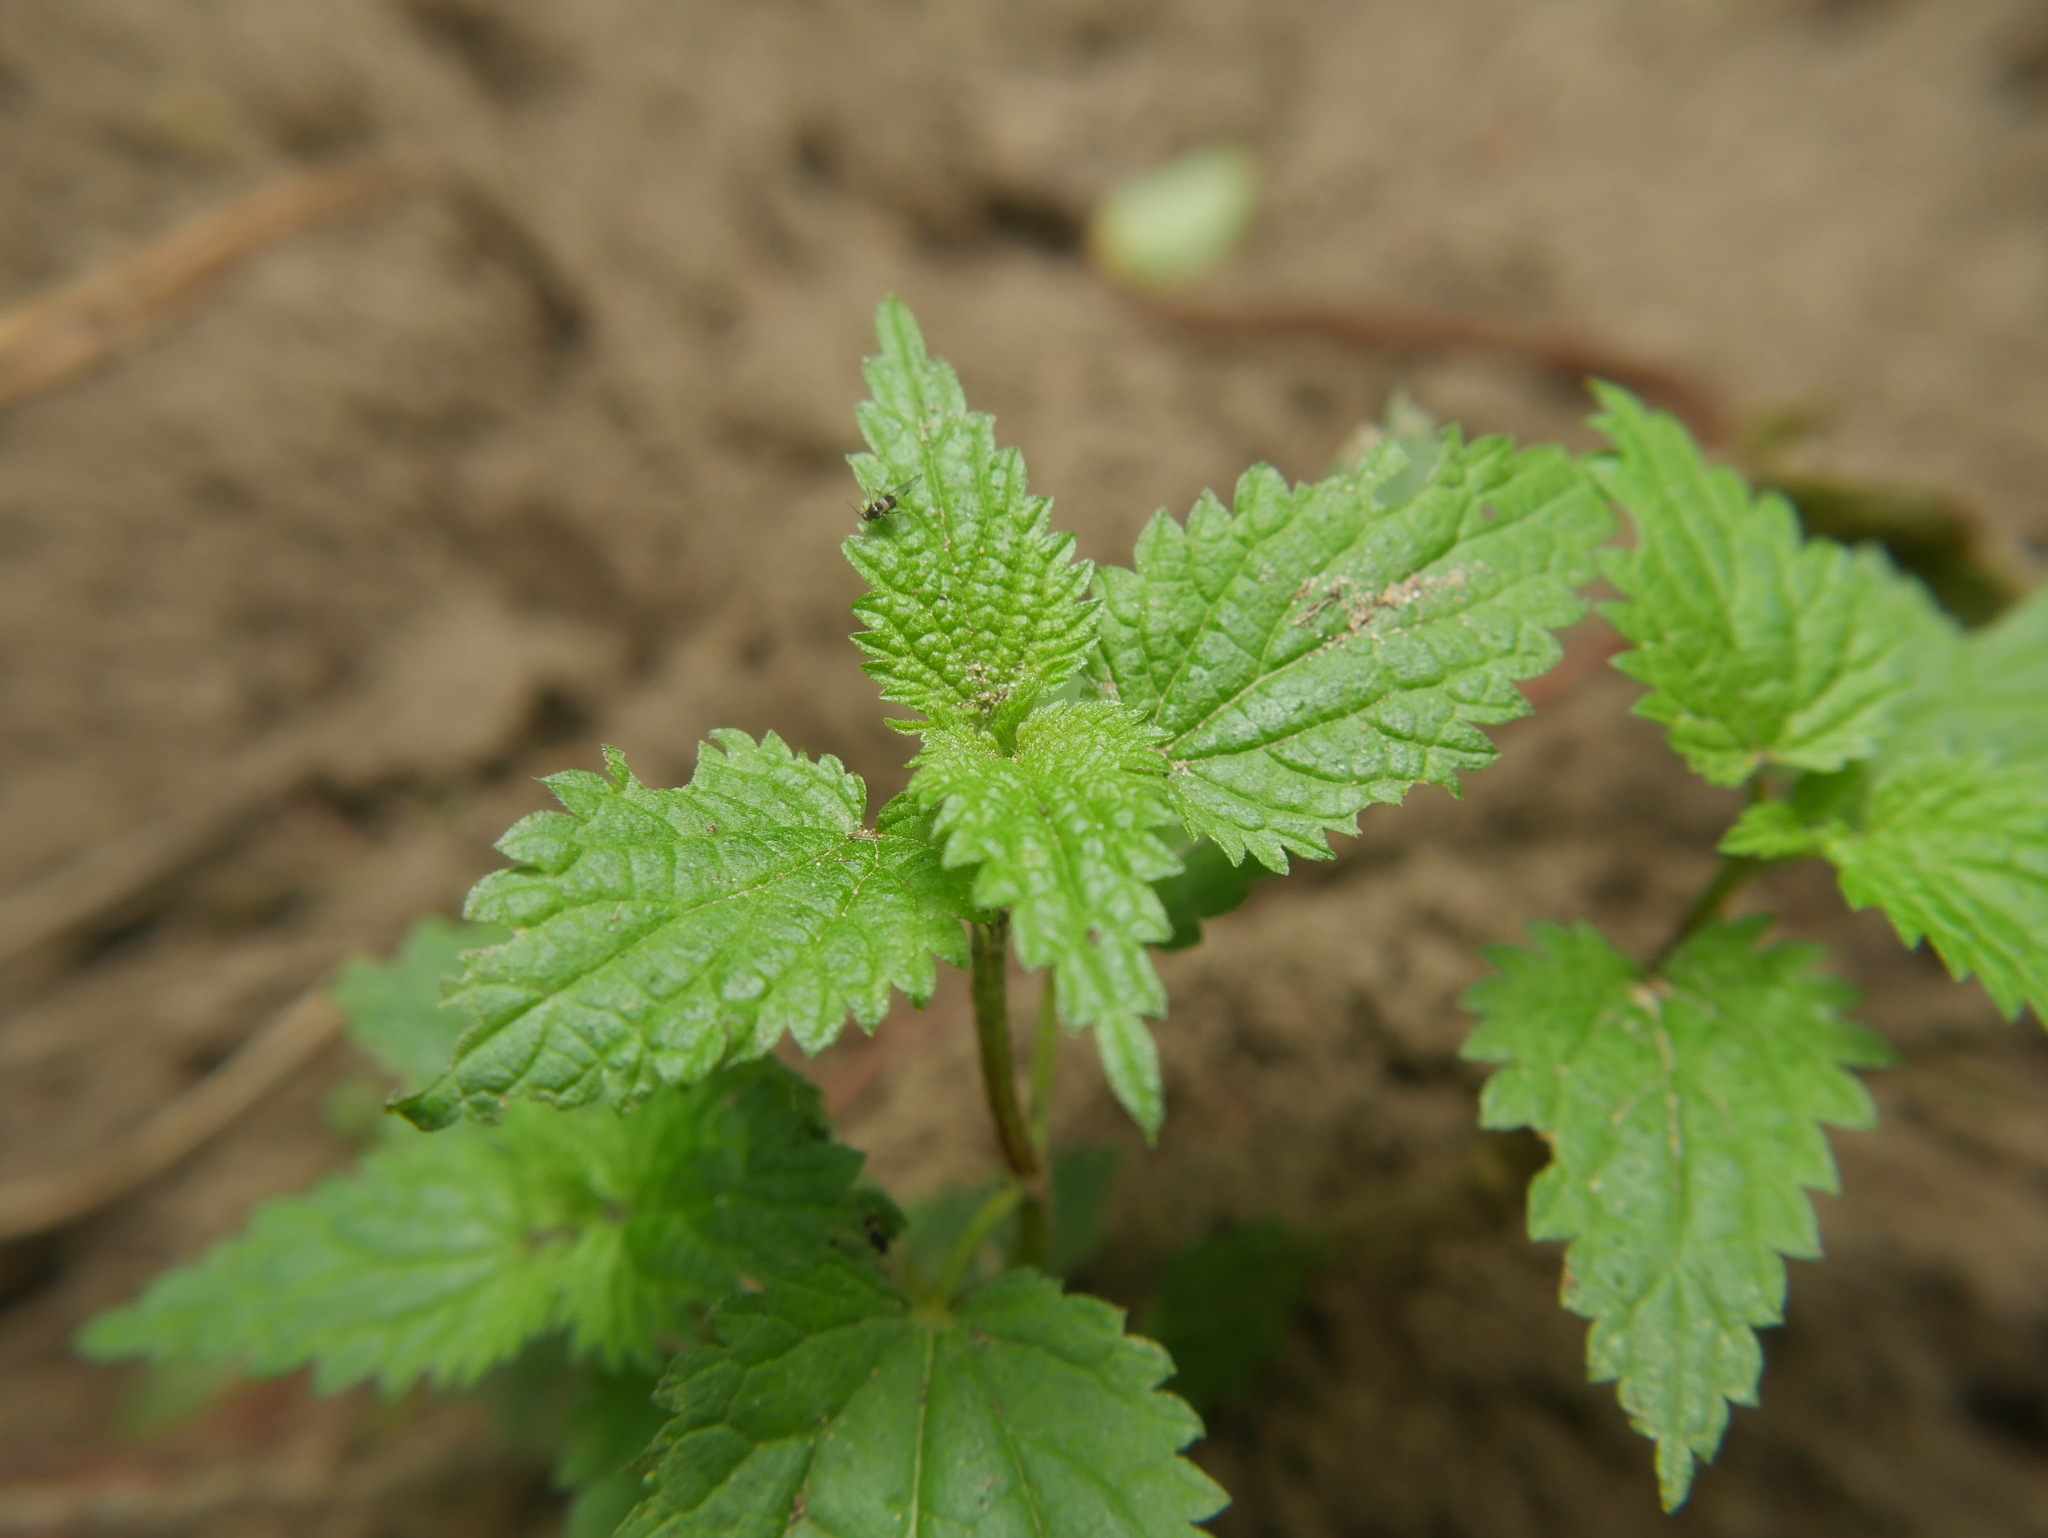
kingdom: Plantae
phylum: Tracheophyta
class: Magnoliopsida
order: Rosales
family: Urticaceae
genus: Urtica
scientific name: Urtica dioica
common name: Common nettle
